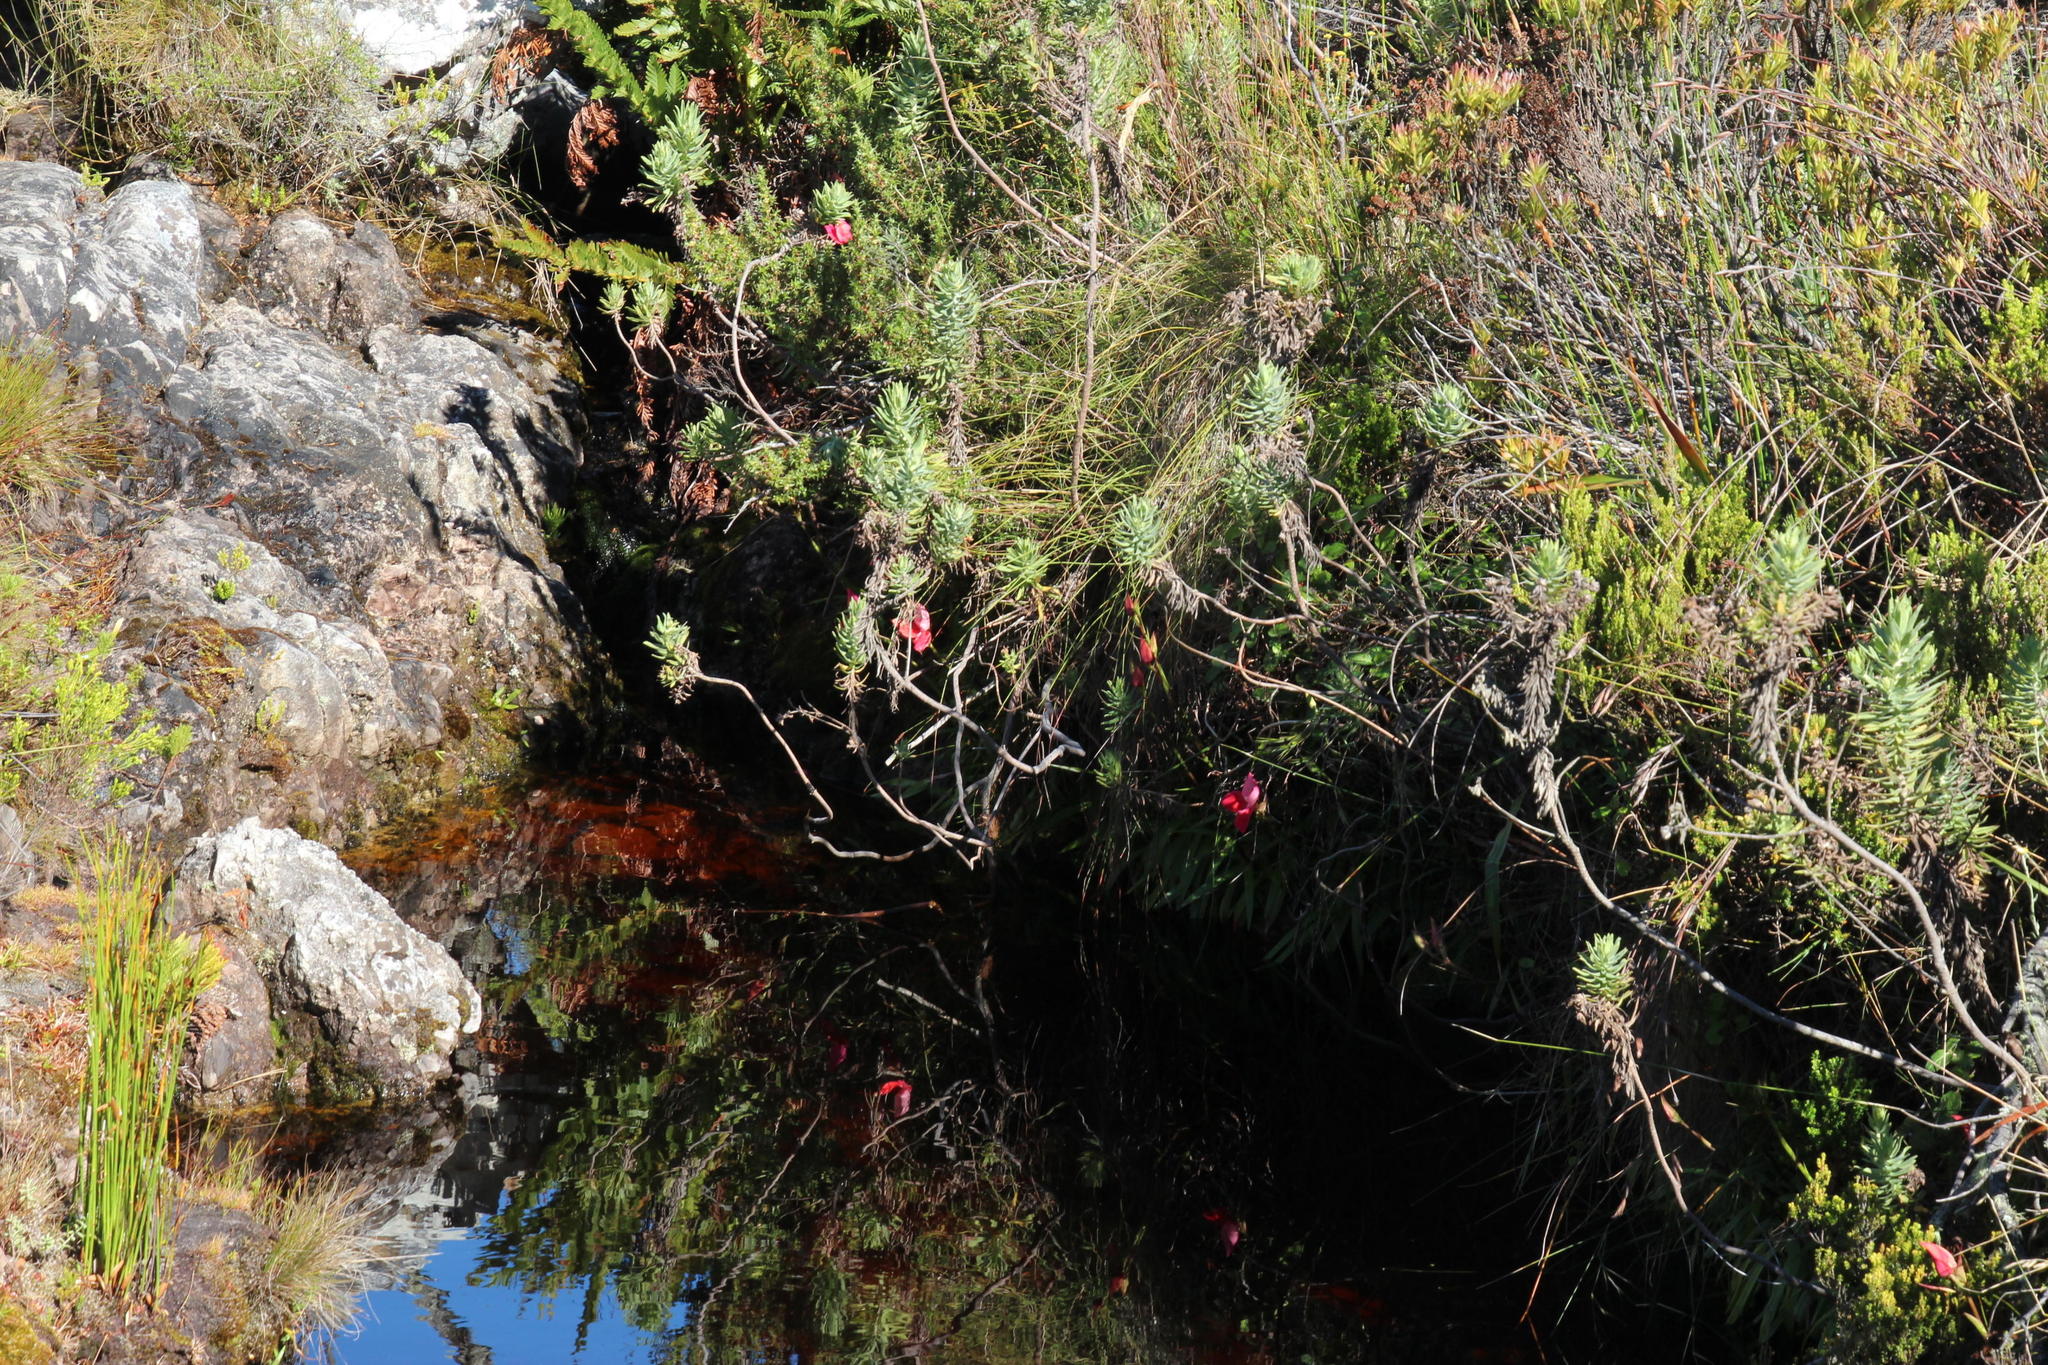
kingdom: Plantae
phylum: Tracheophyta
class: Liliopsida
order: Asparagales
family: Orchidaceae
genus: Disa
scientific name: Disa uniflora
